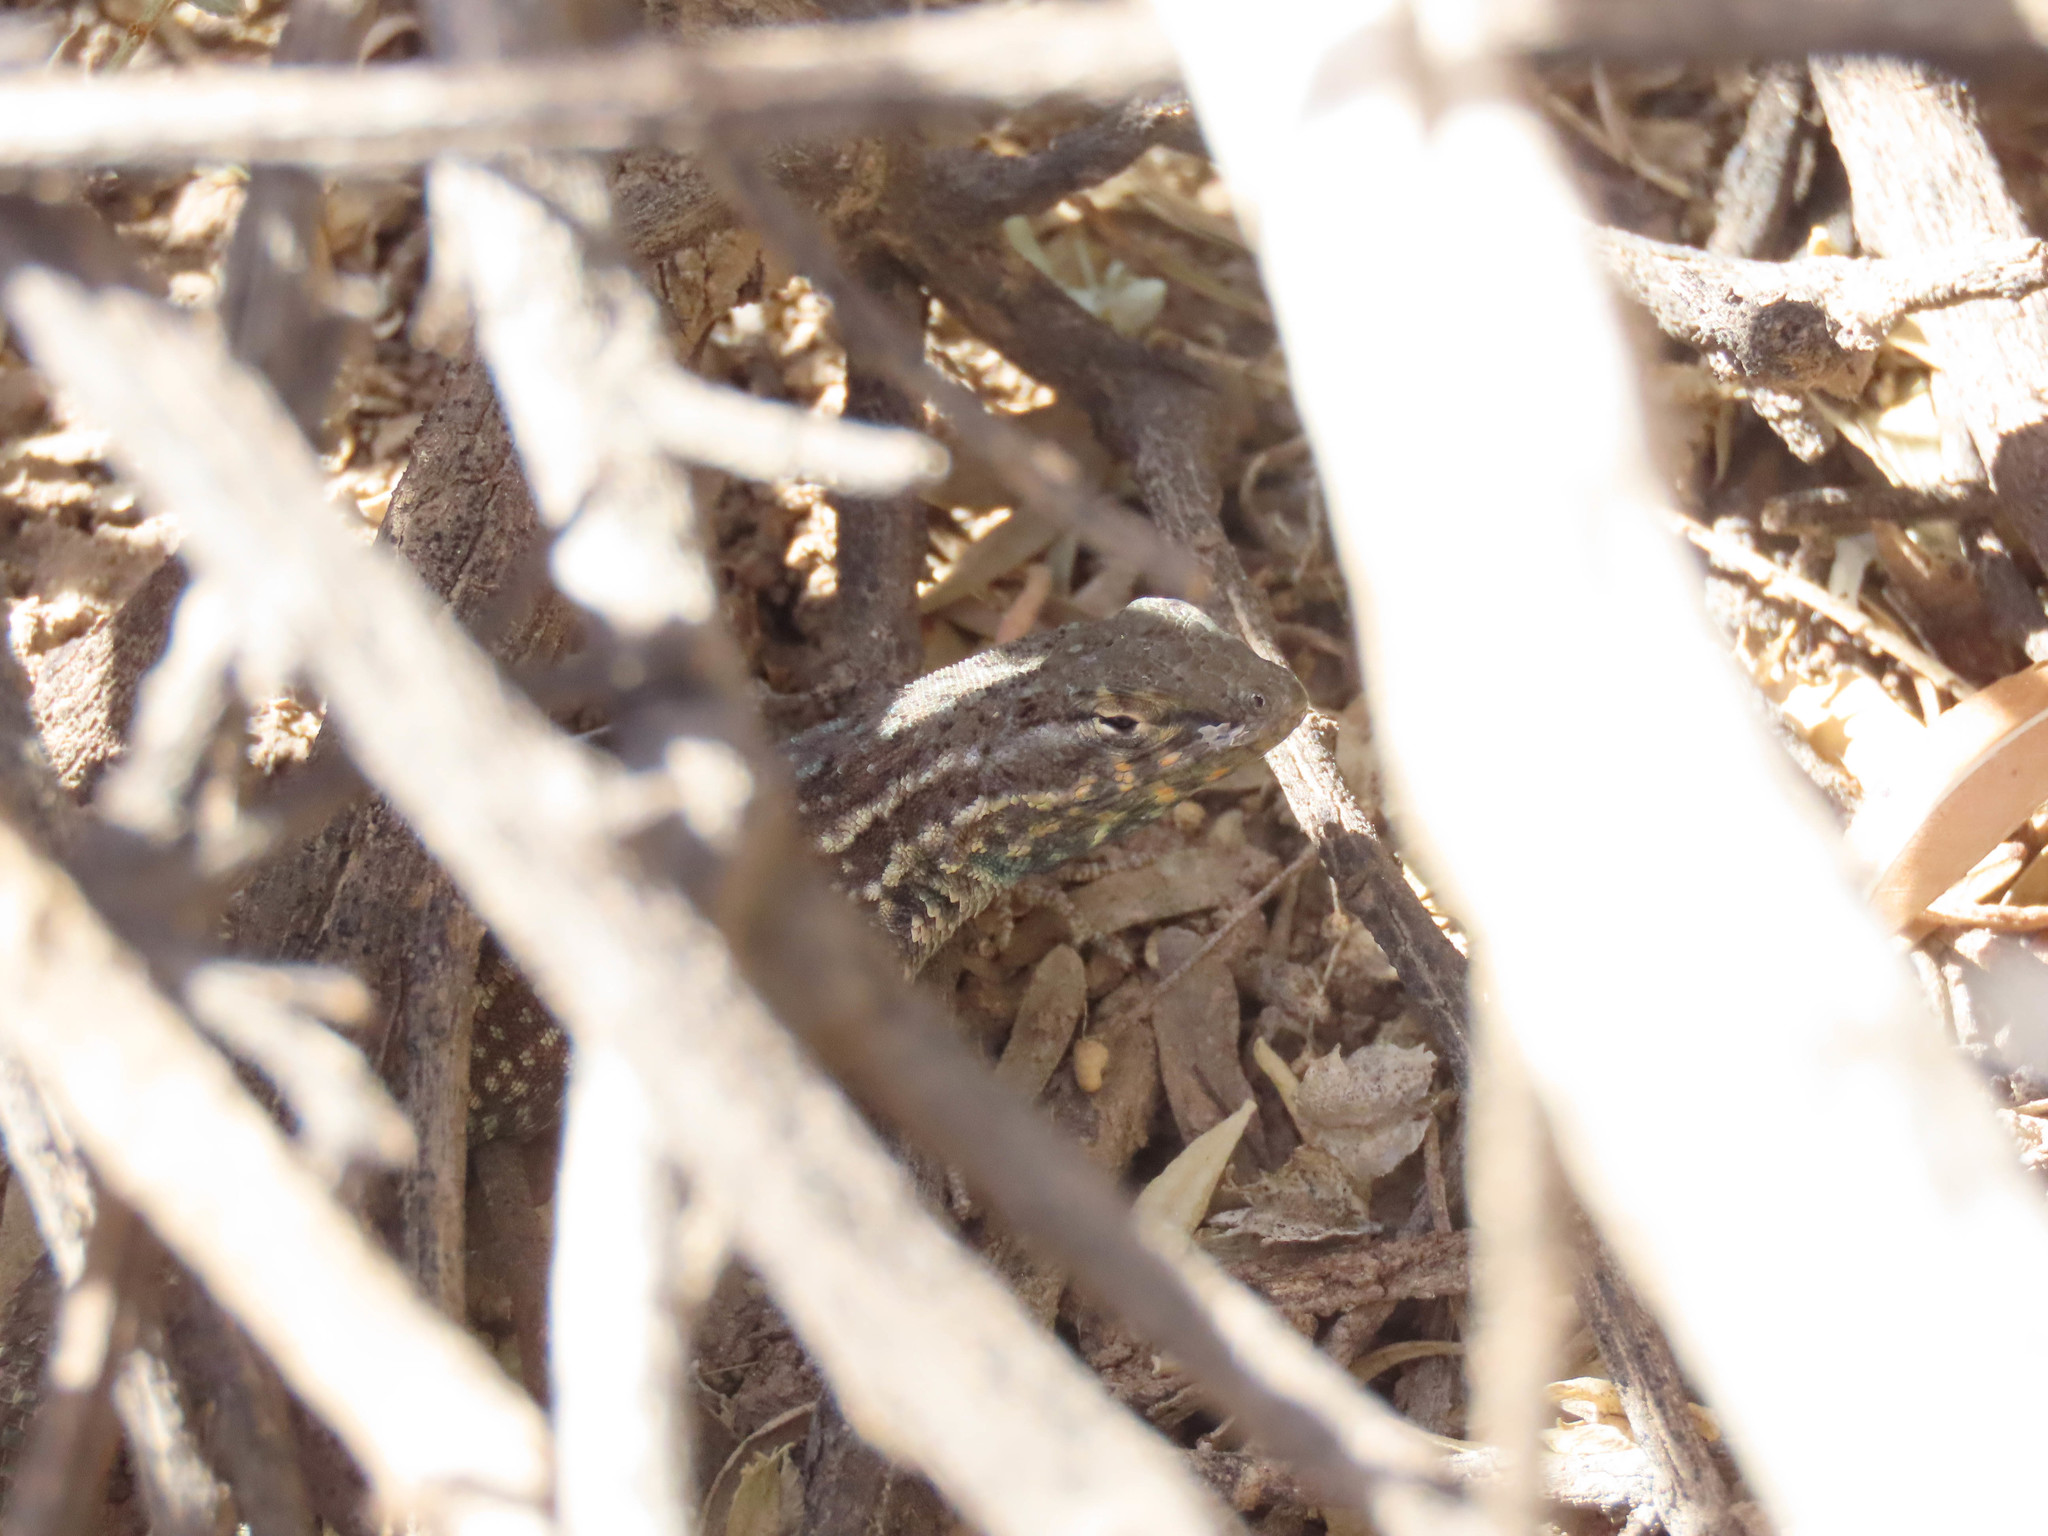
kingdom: Animalia
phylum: Chordata
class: Squamata
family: Phrynosomatidae
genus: Uta
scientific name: Uta stansburiana
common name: Side-blotched lizard
